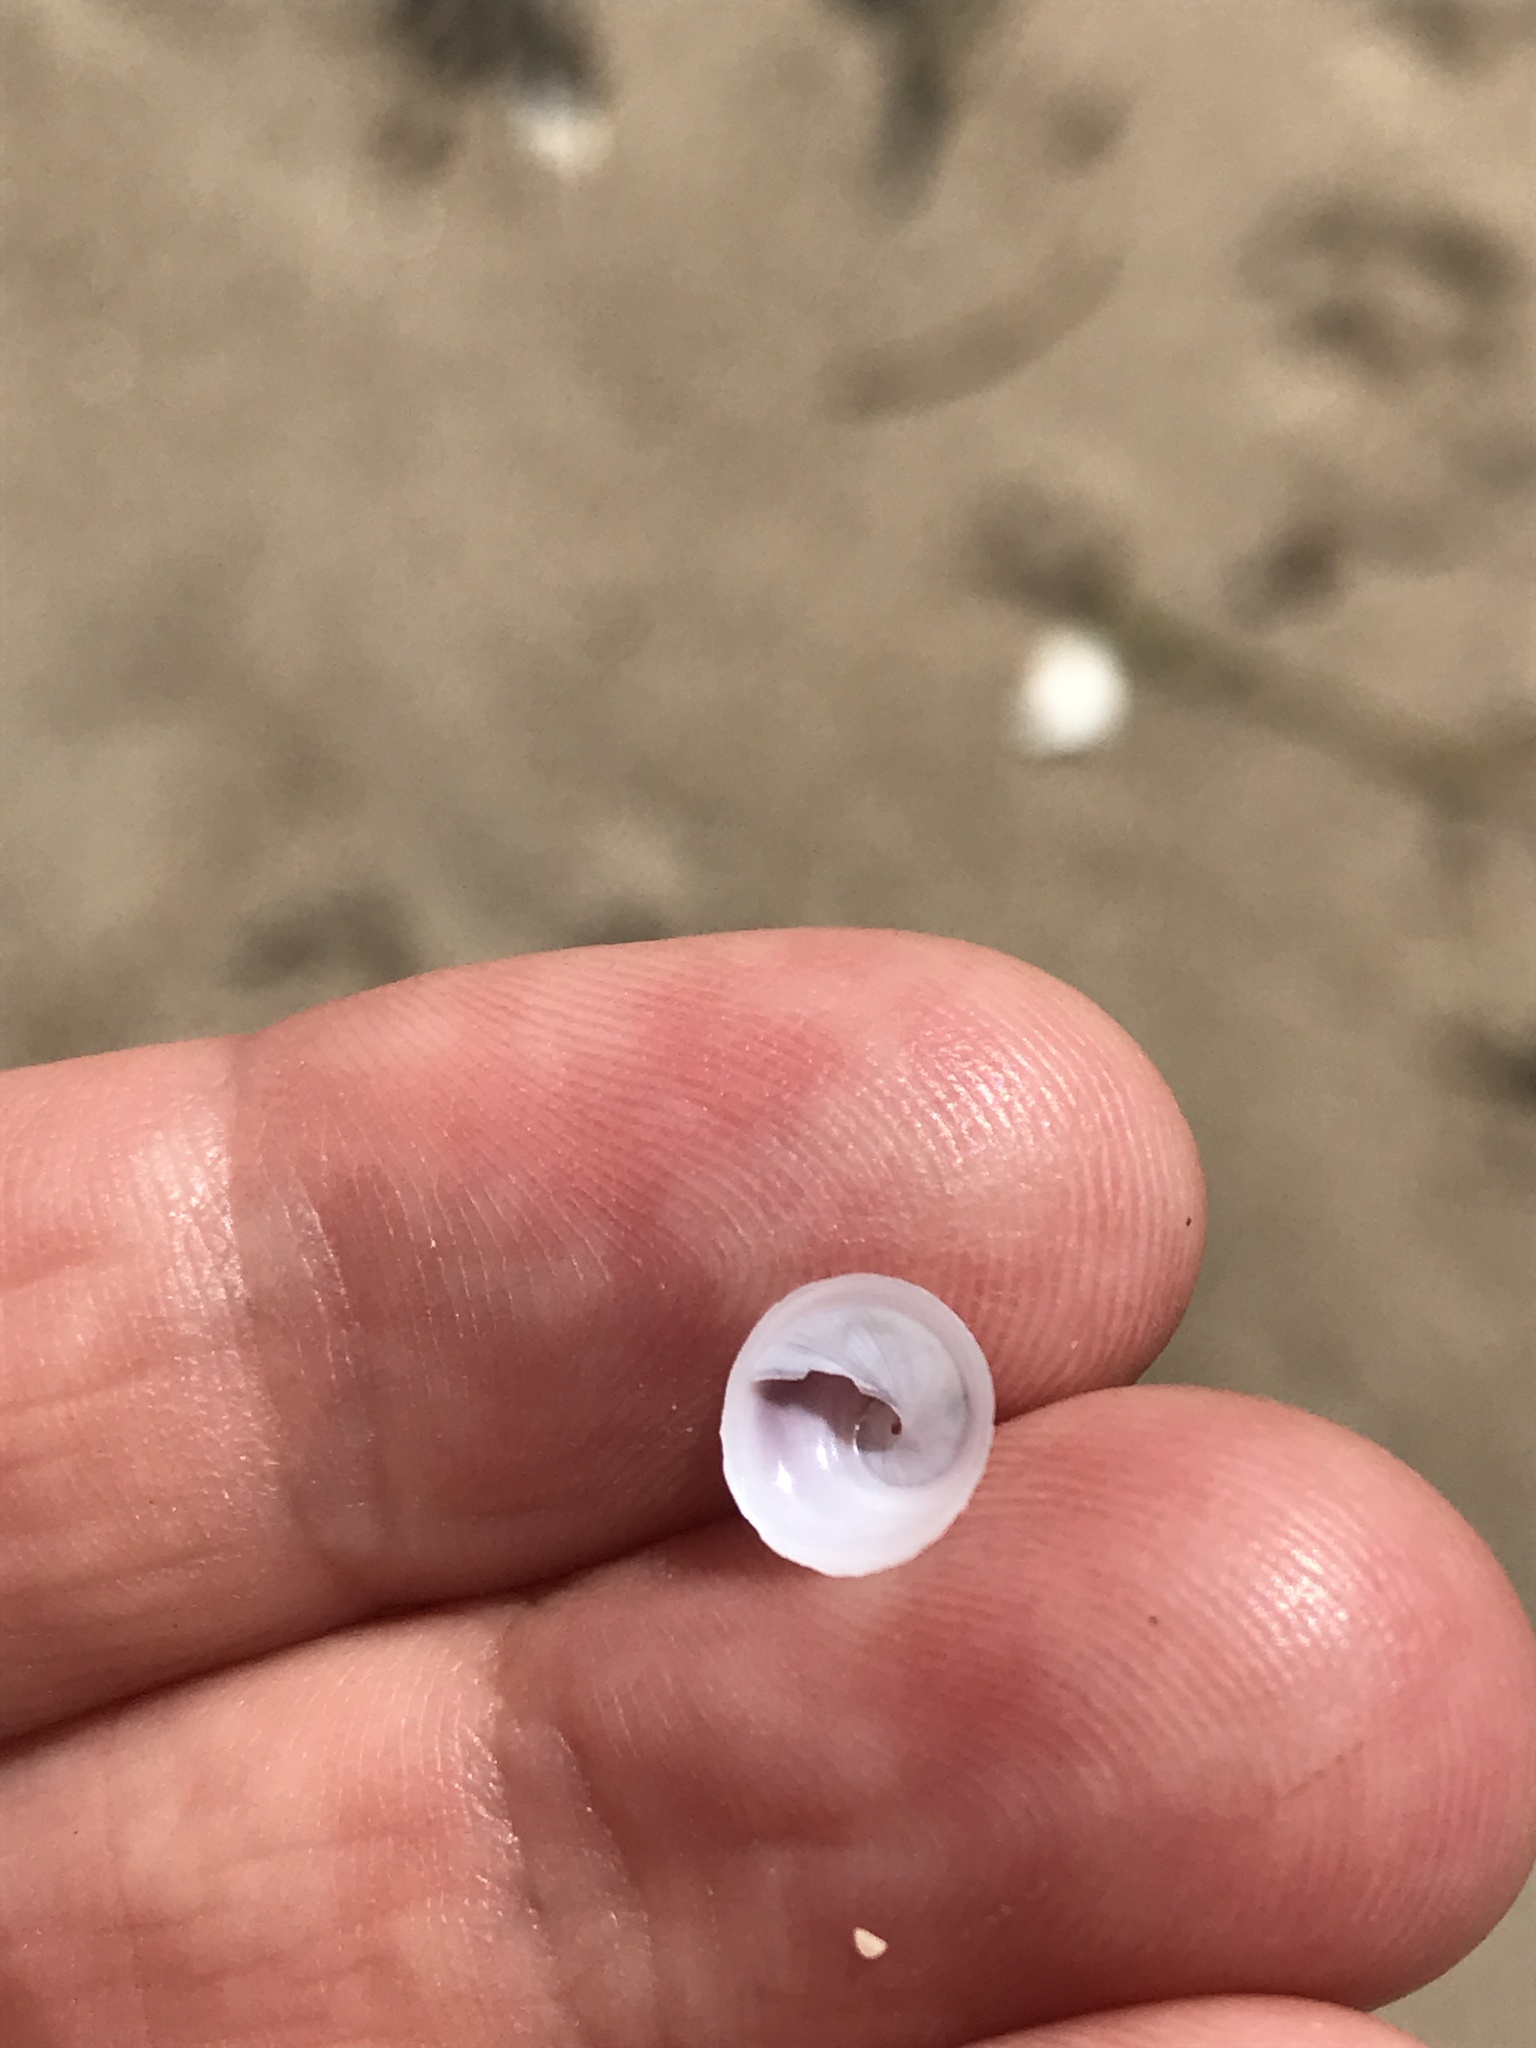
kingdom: Animalia
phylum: Mollusca
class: Gastropoda
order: Littorinimorpha
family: Calyptraeidae
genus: Sigapatella
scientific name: Sigapatella tenuis
